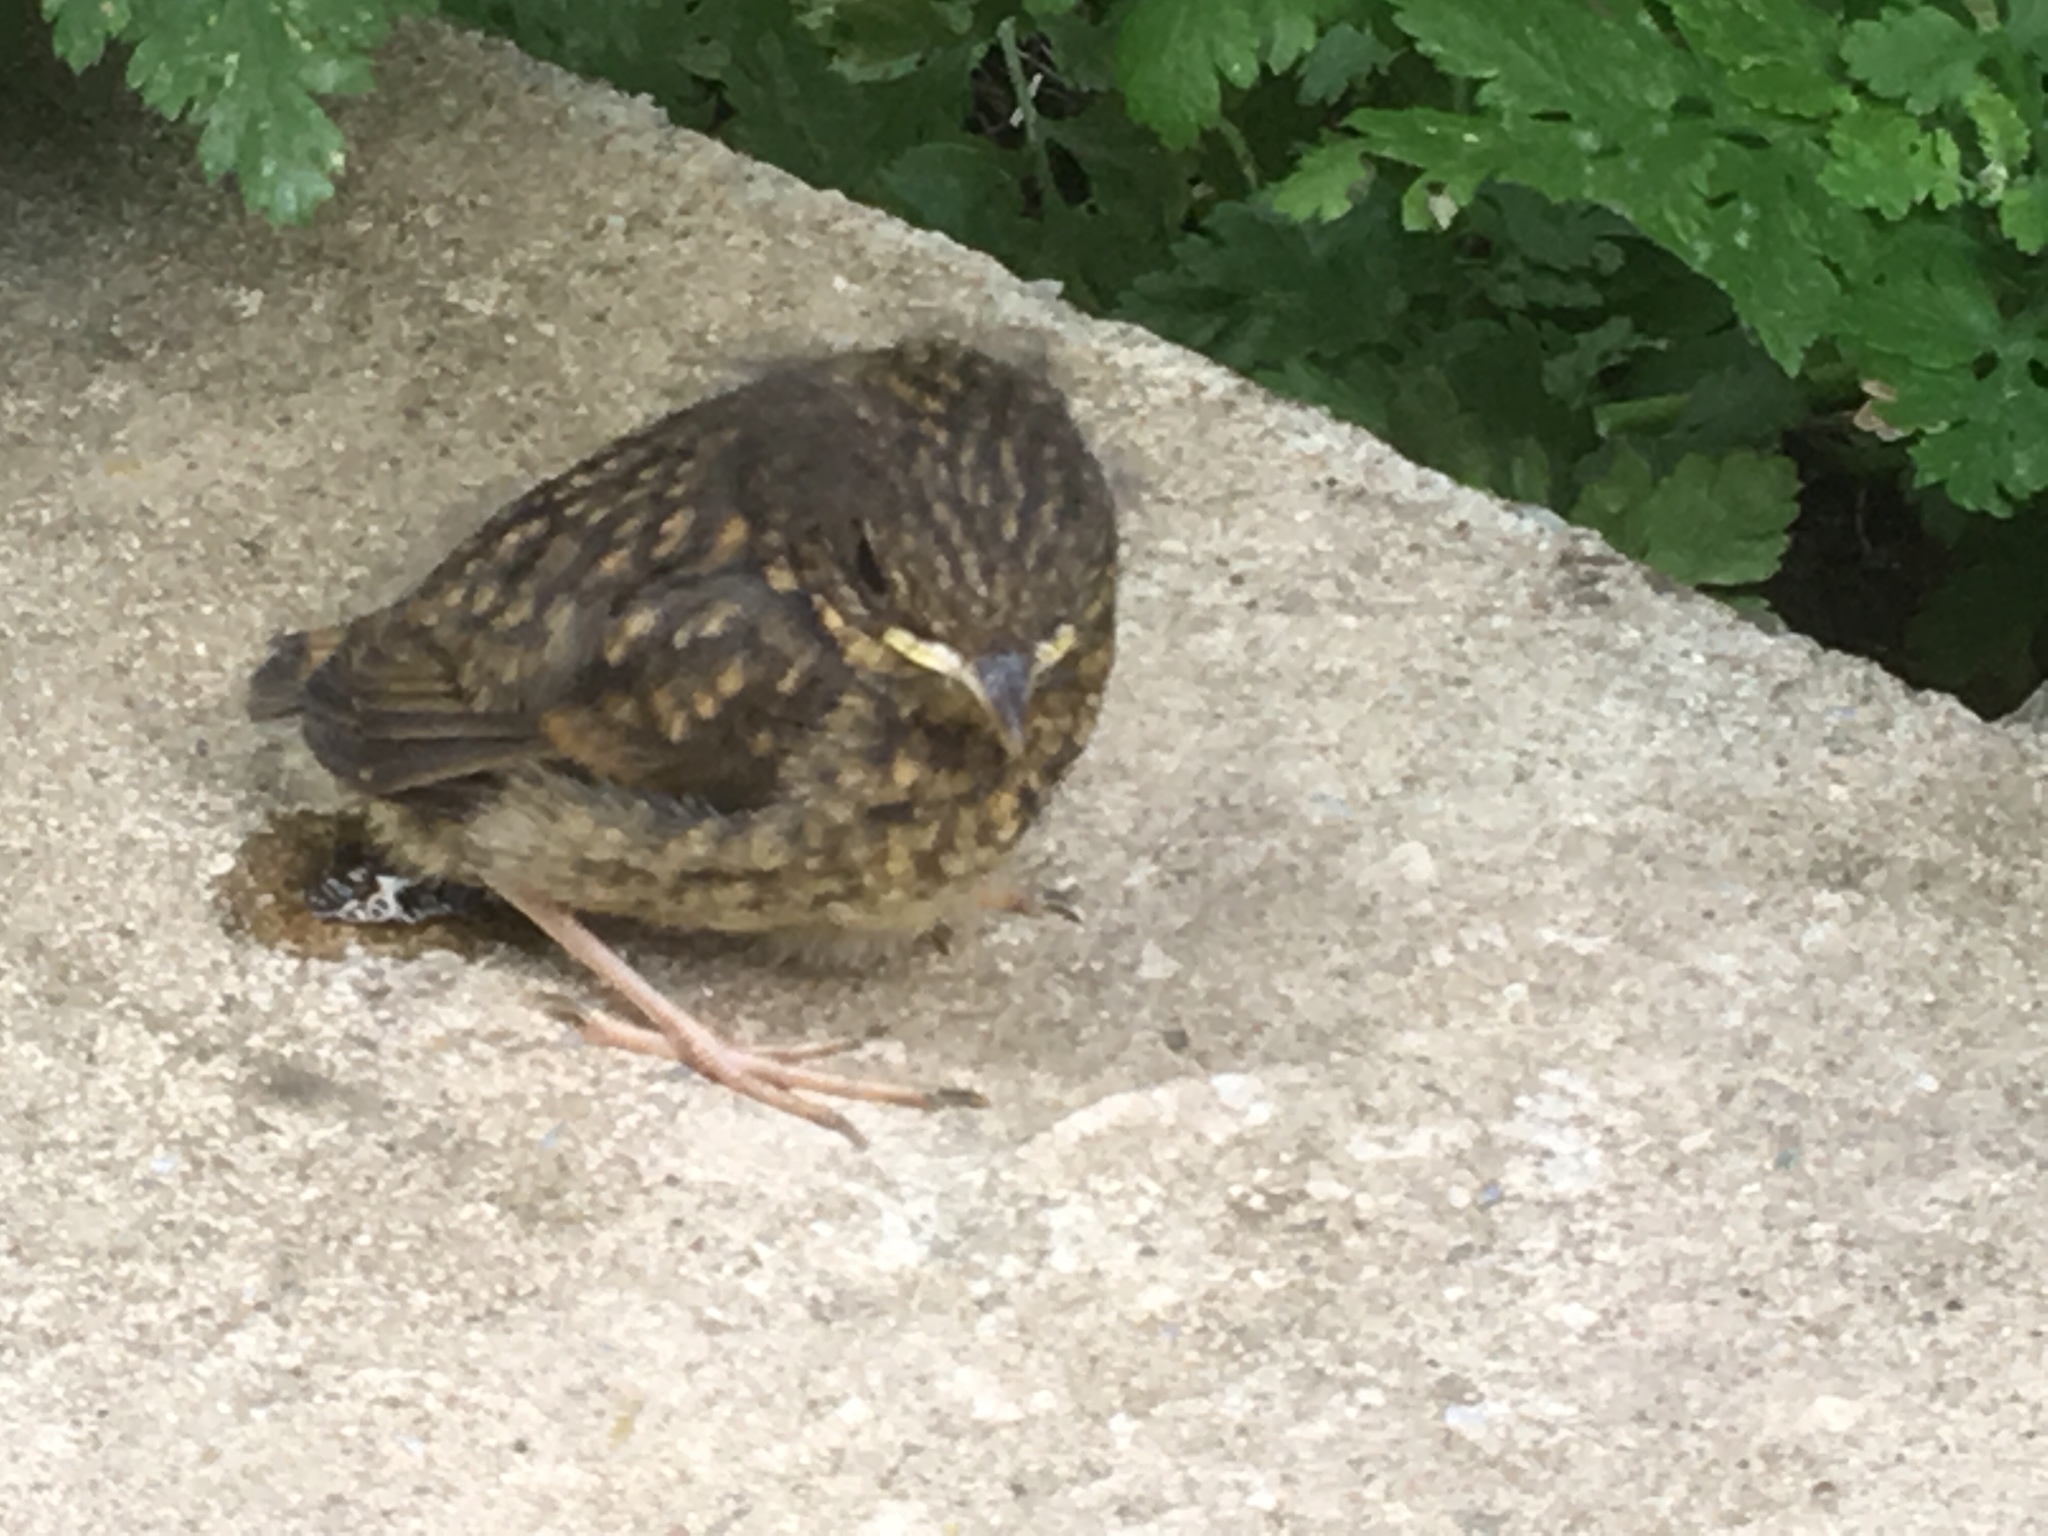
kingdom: Animalia
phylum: Chordata
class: Aves
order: Passeriformes
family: Muscicapidae
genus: Erithacus
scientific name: Erithacus rubecula
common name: European robin
